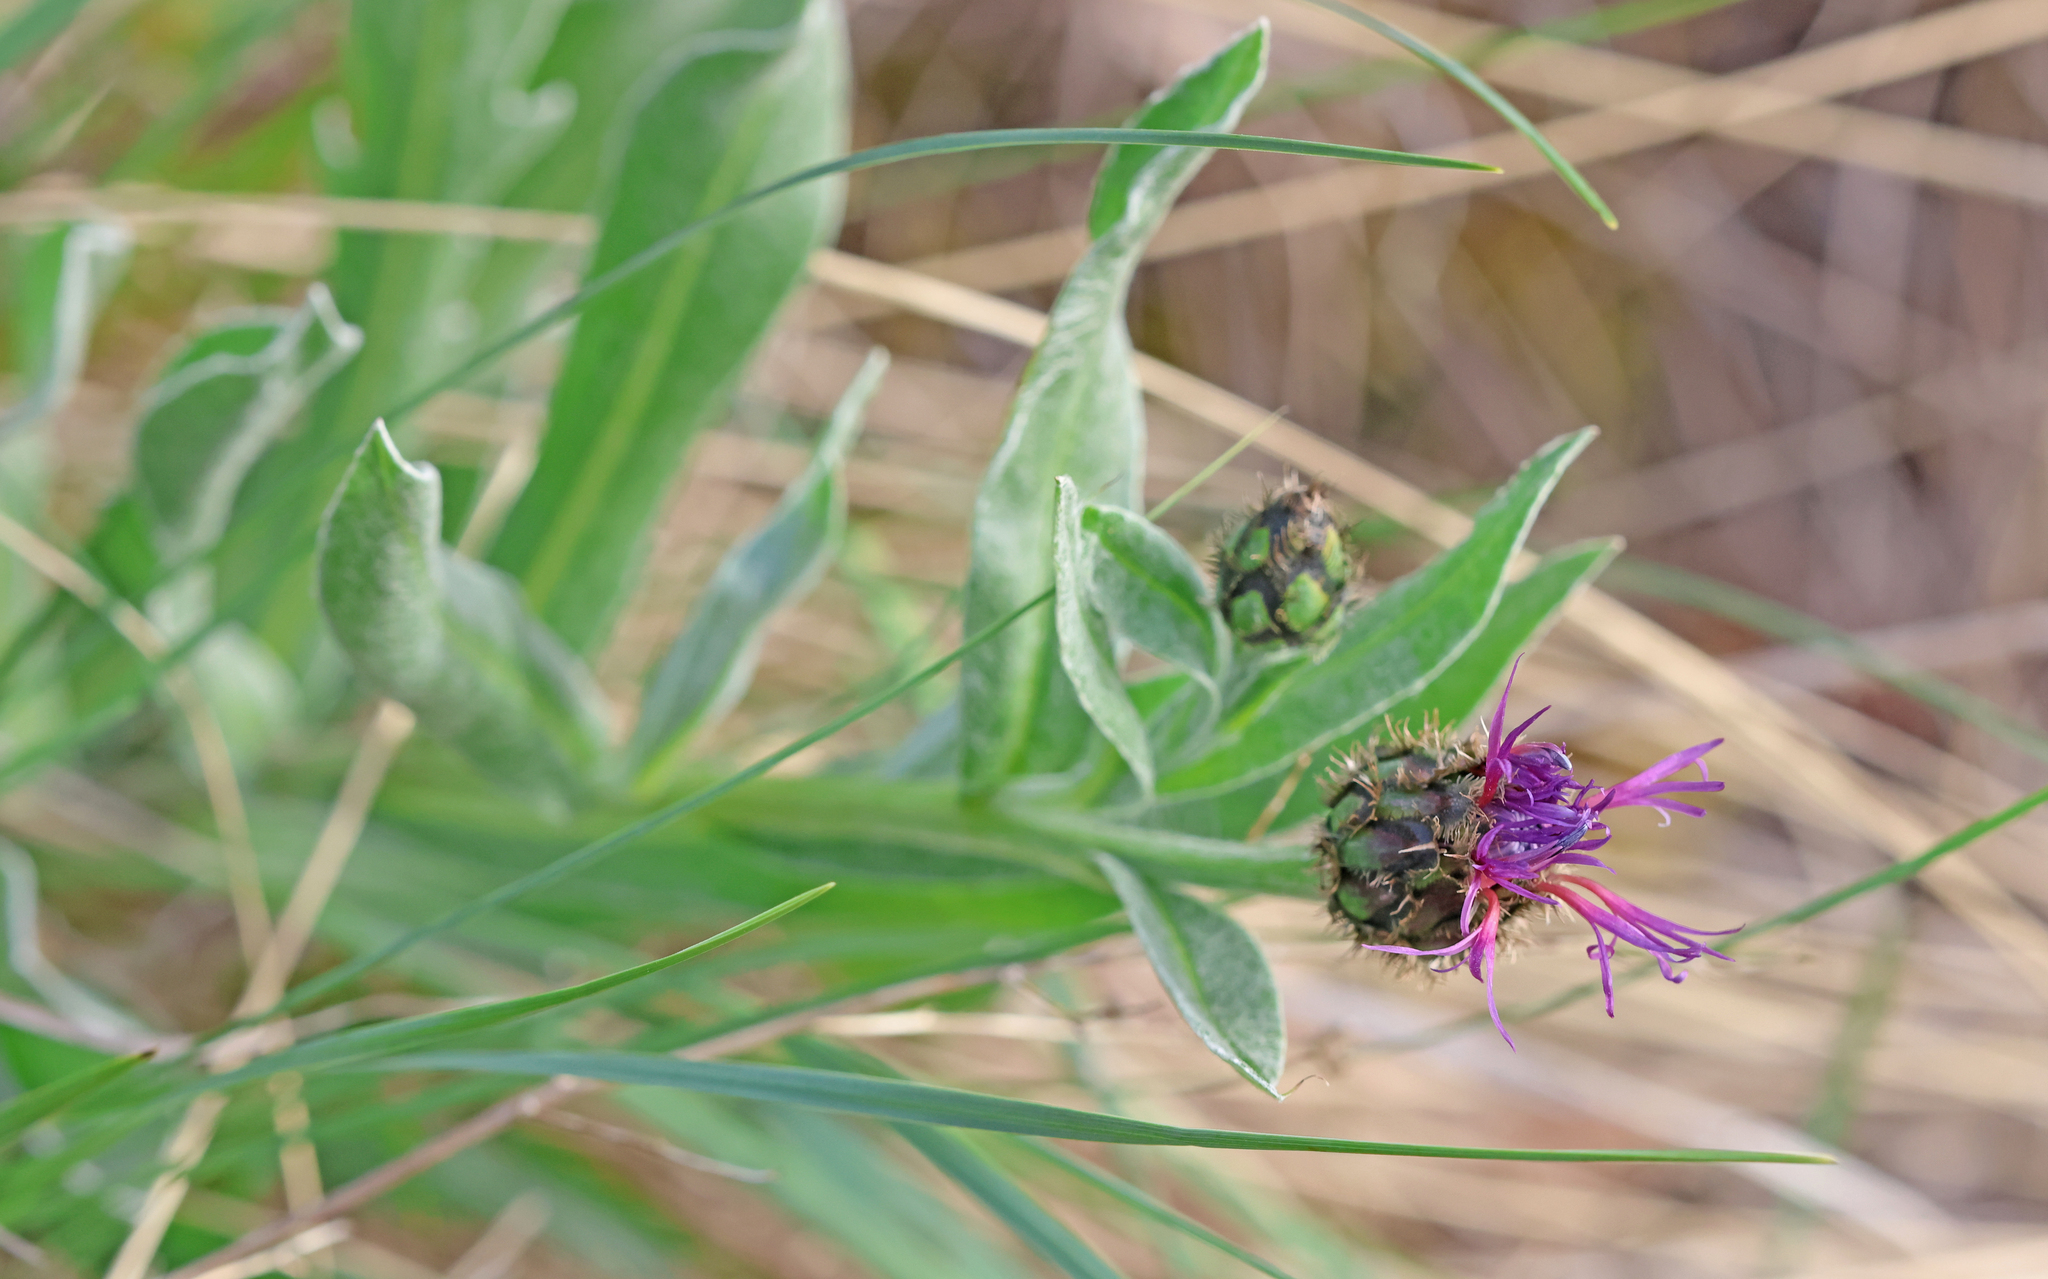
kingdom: Plantae
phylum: Tracheophyta
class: Magnoliopsida
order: Asterales
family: Asteraceae
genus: Centaurea
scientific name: Centaurea triumfettii
